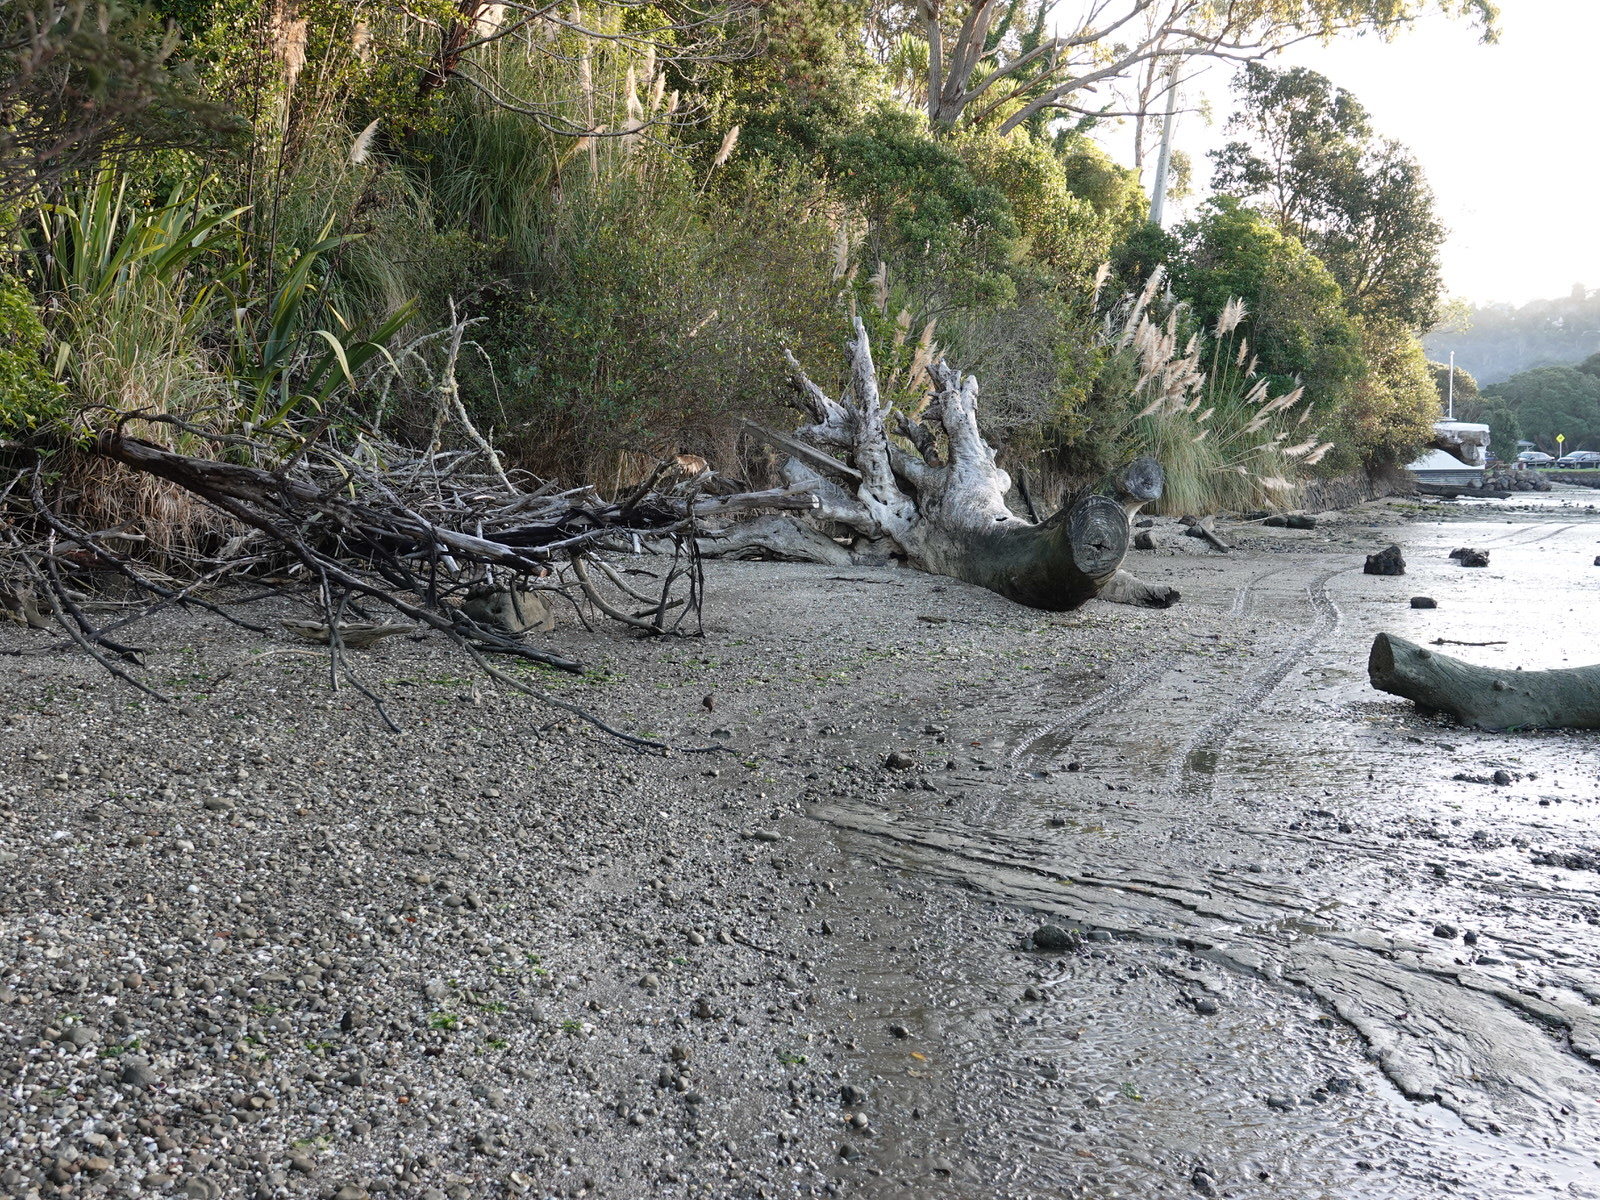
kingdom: Animalia
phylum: Chordata
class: Aves
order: Passeriformes
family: Turdidae
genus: Turdus
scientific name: Turdus merula
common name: Common blackbird
